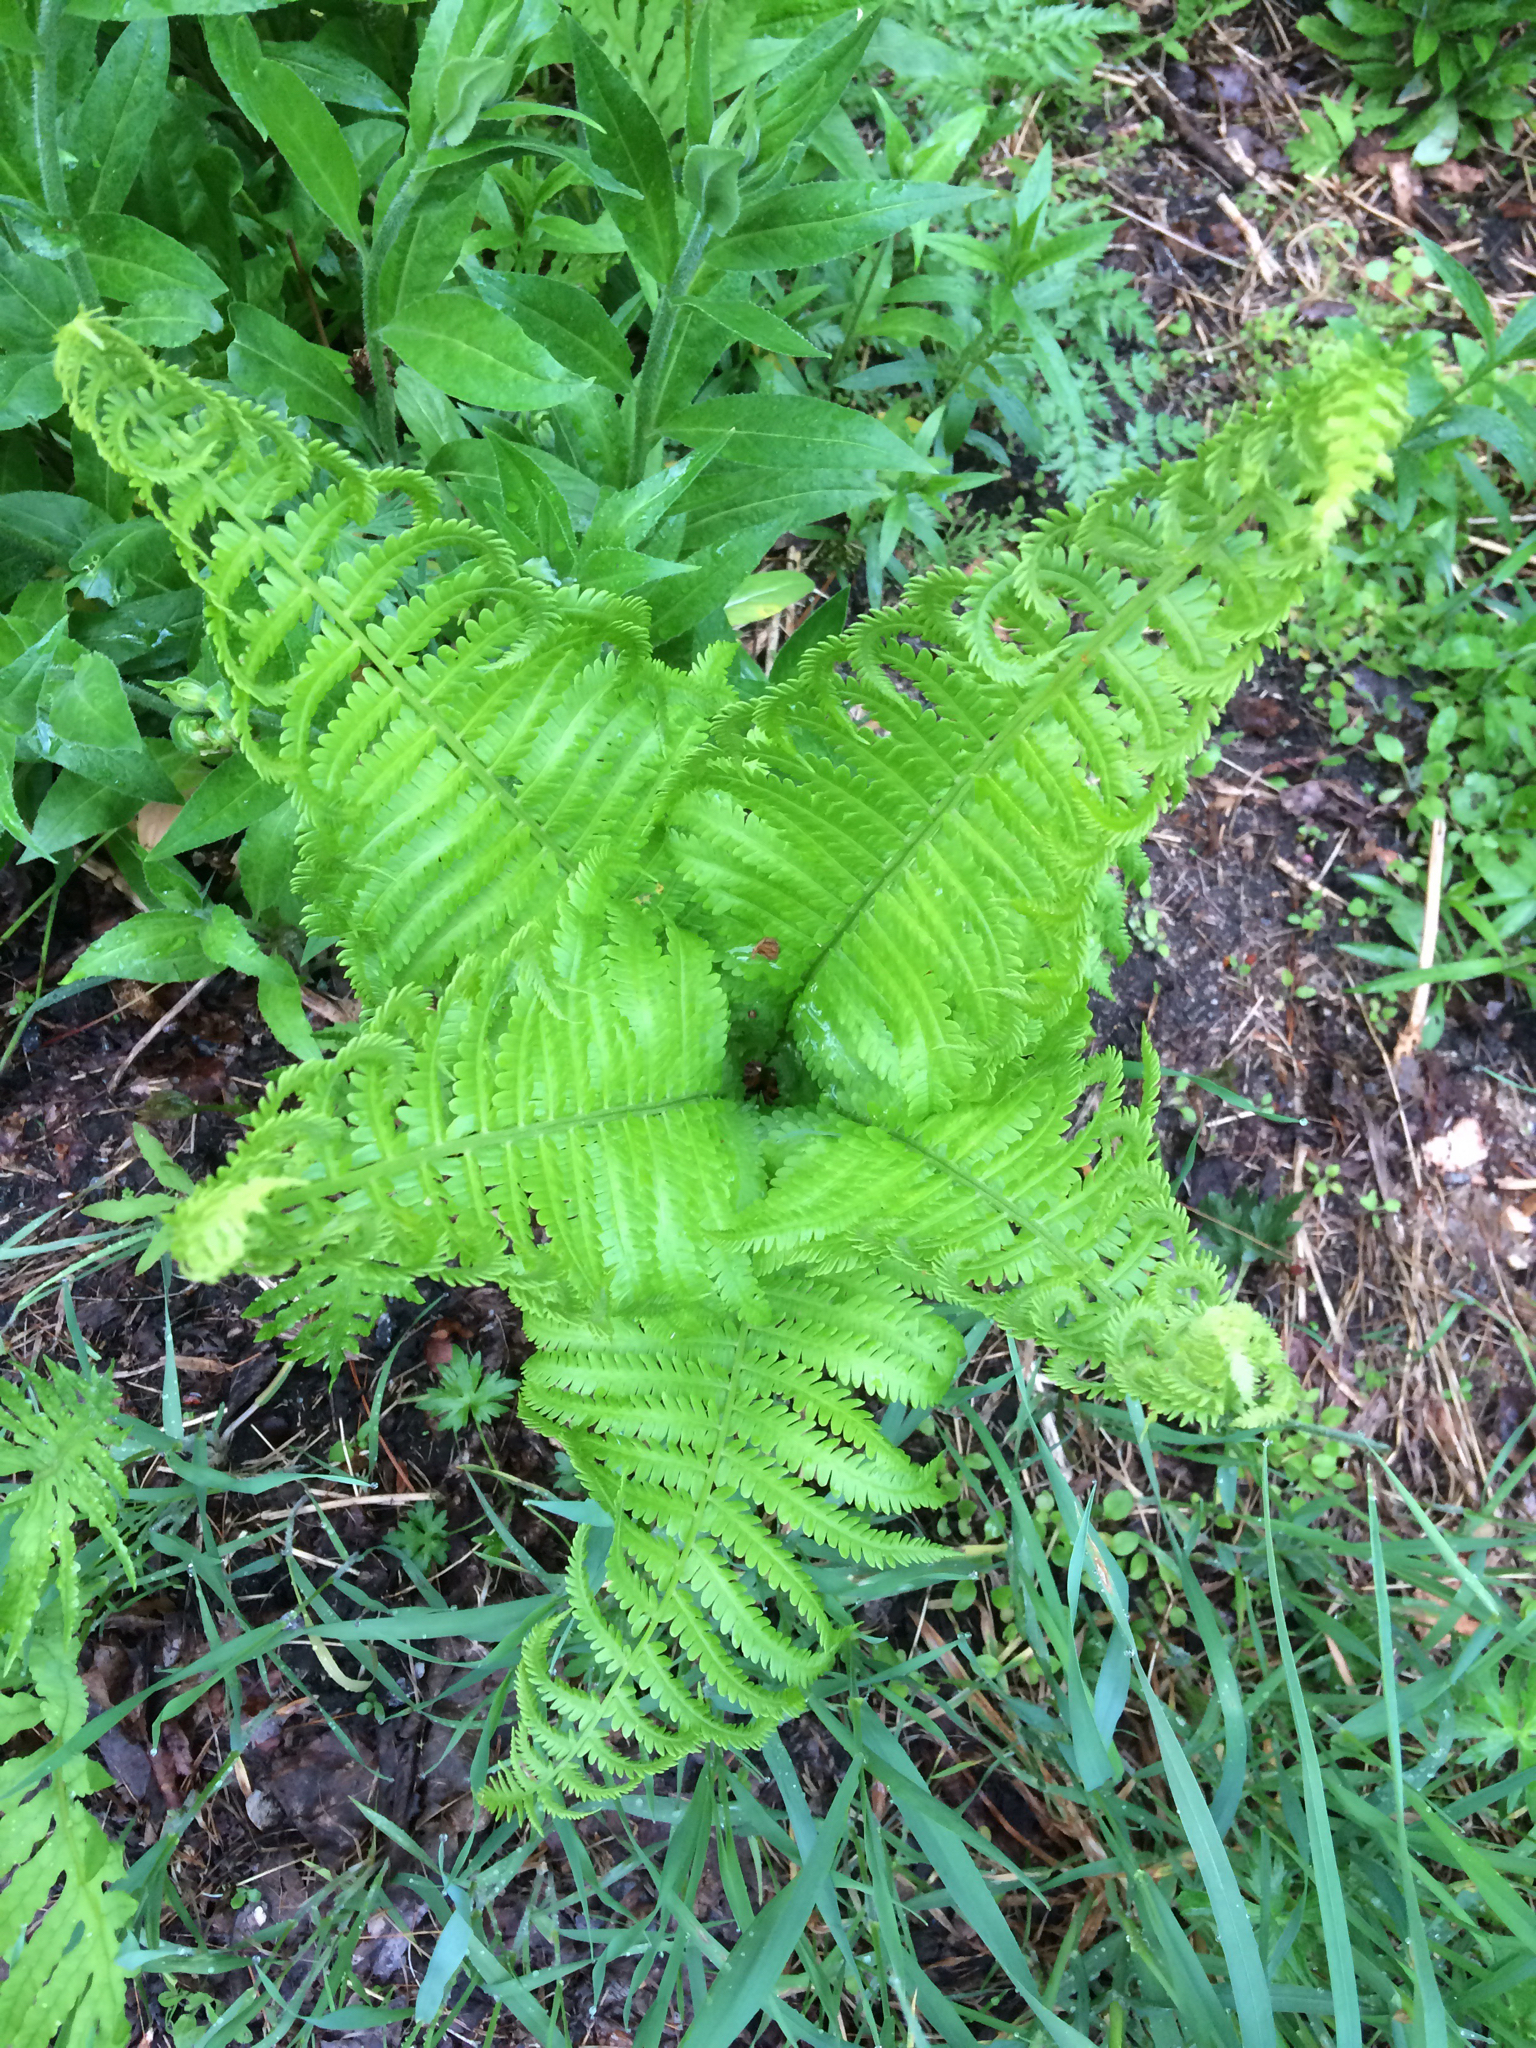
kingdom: Plantae
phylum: Tracheophyta
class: Polypodiopsida
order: Polypodiales
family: Onocleaceae
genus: Matteuccia
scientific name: Matteuccia struthiopteris
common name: Ostrich fern
